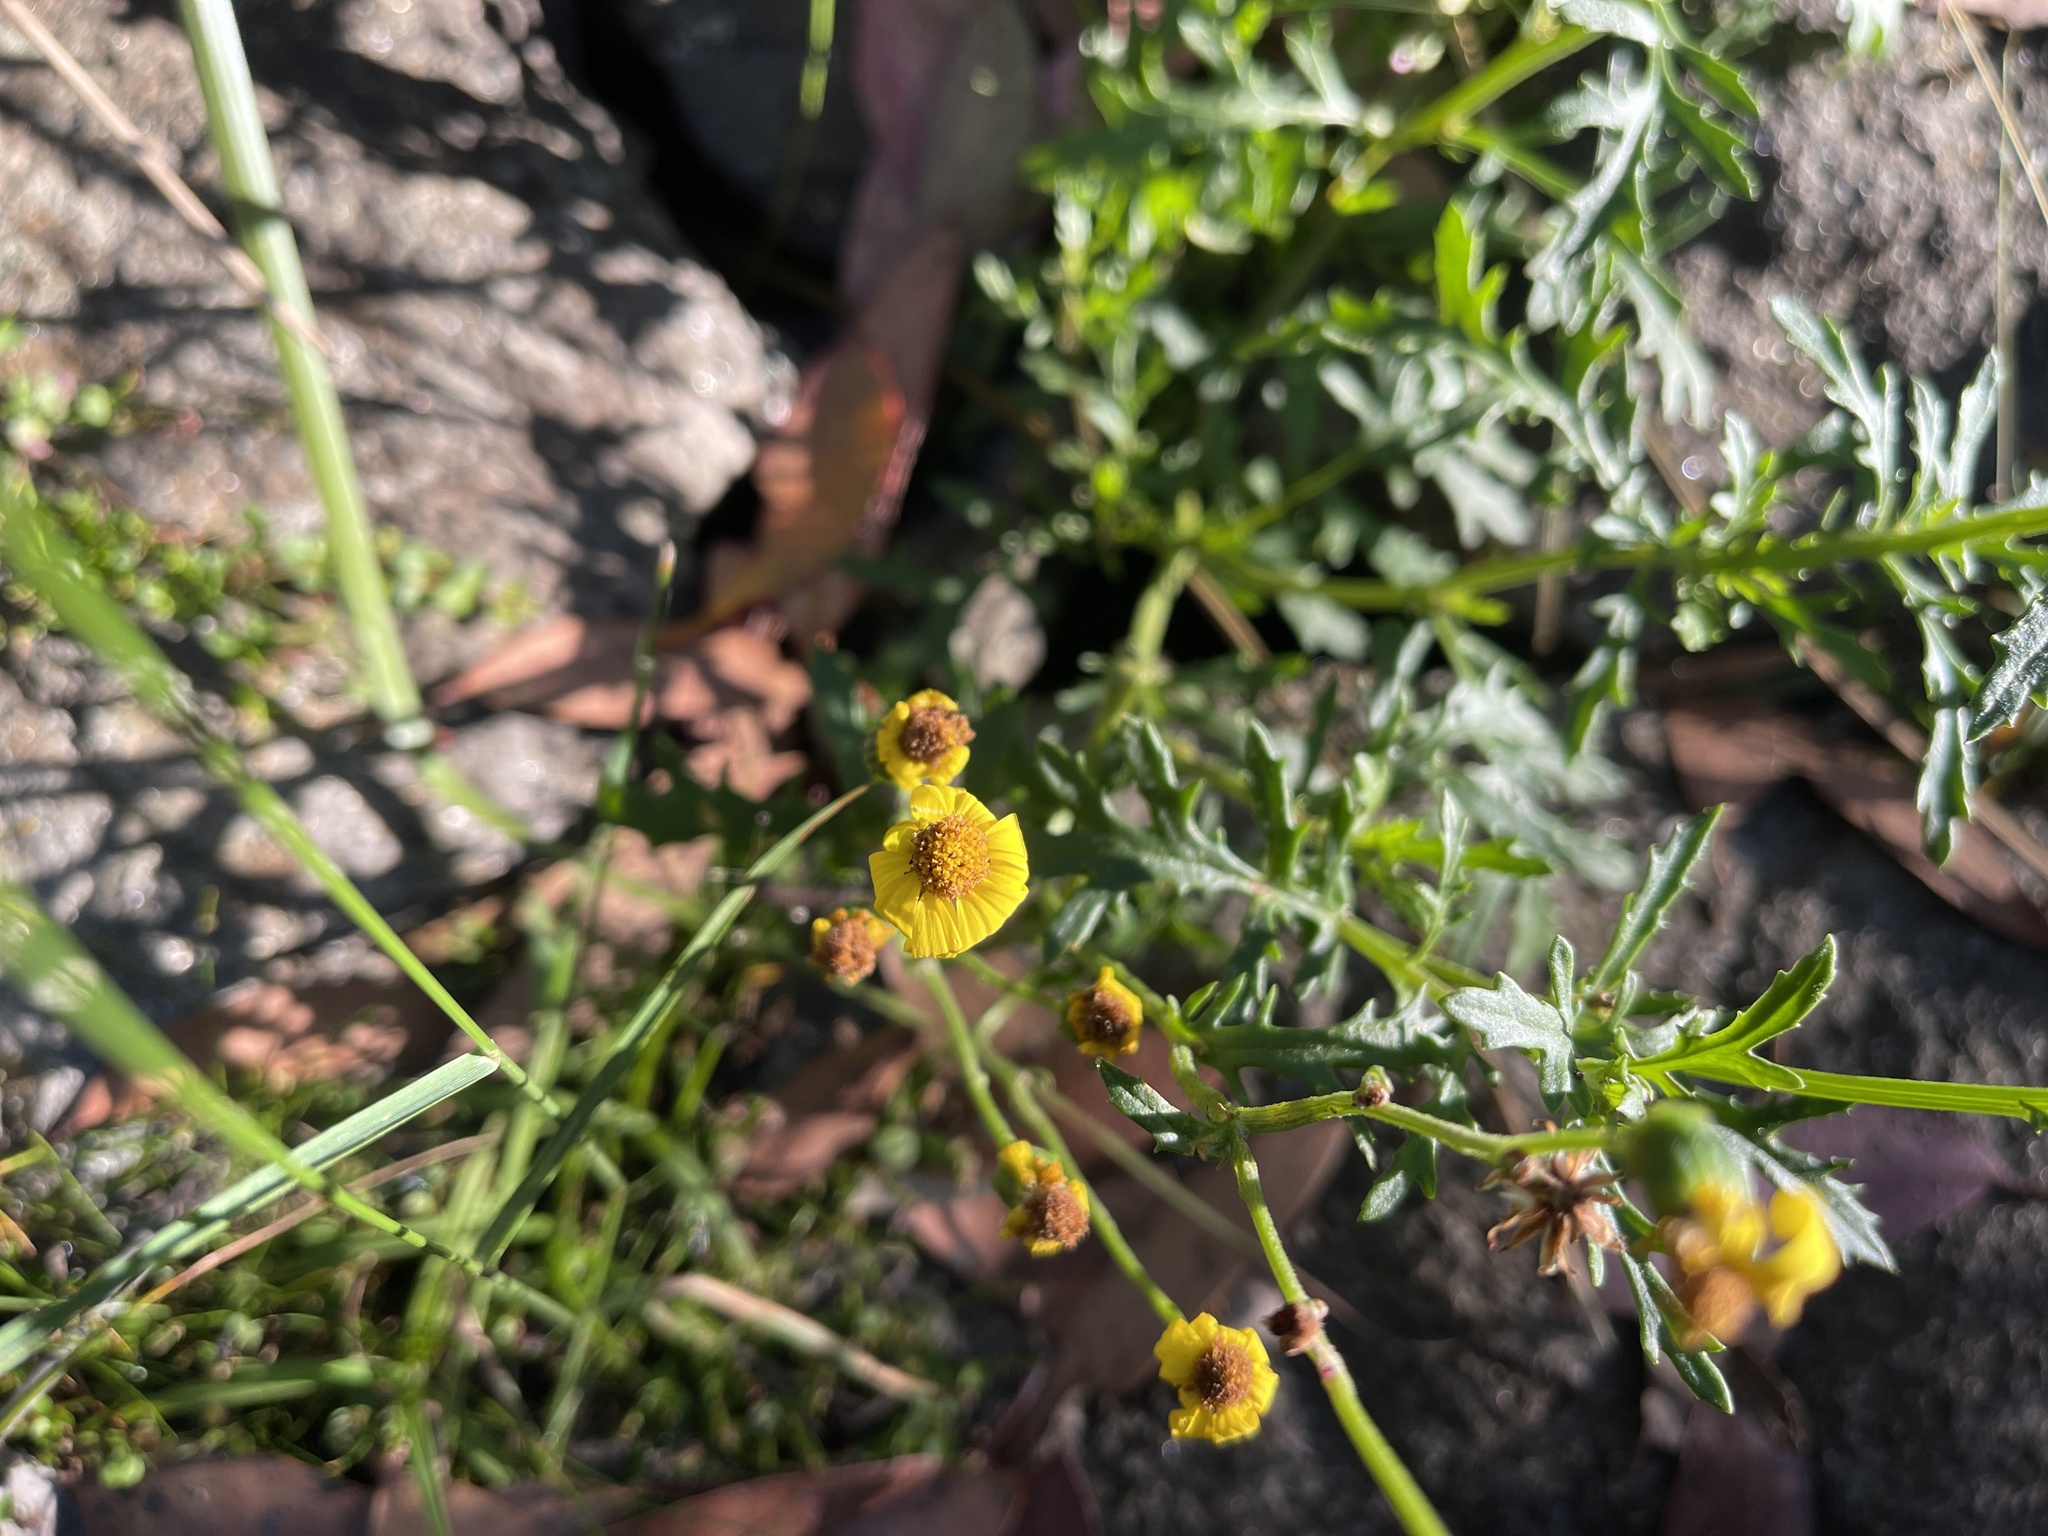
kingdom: Plantae
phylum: Tracheophyta
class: Magnoliopsida
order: Asterales
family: Asteraceae
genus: Senecio
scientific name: Senecio pinnatifolius
